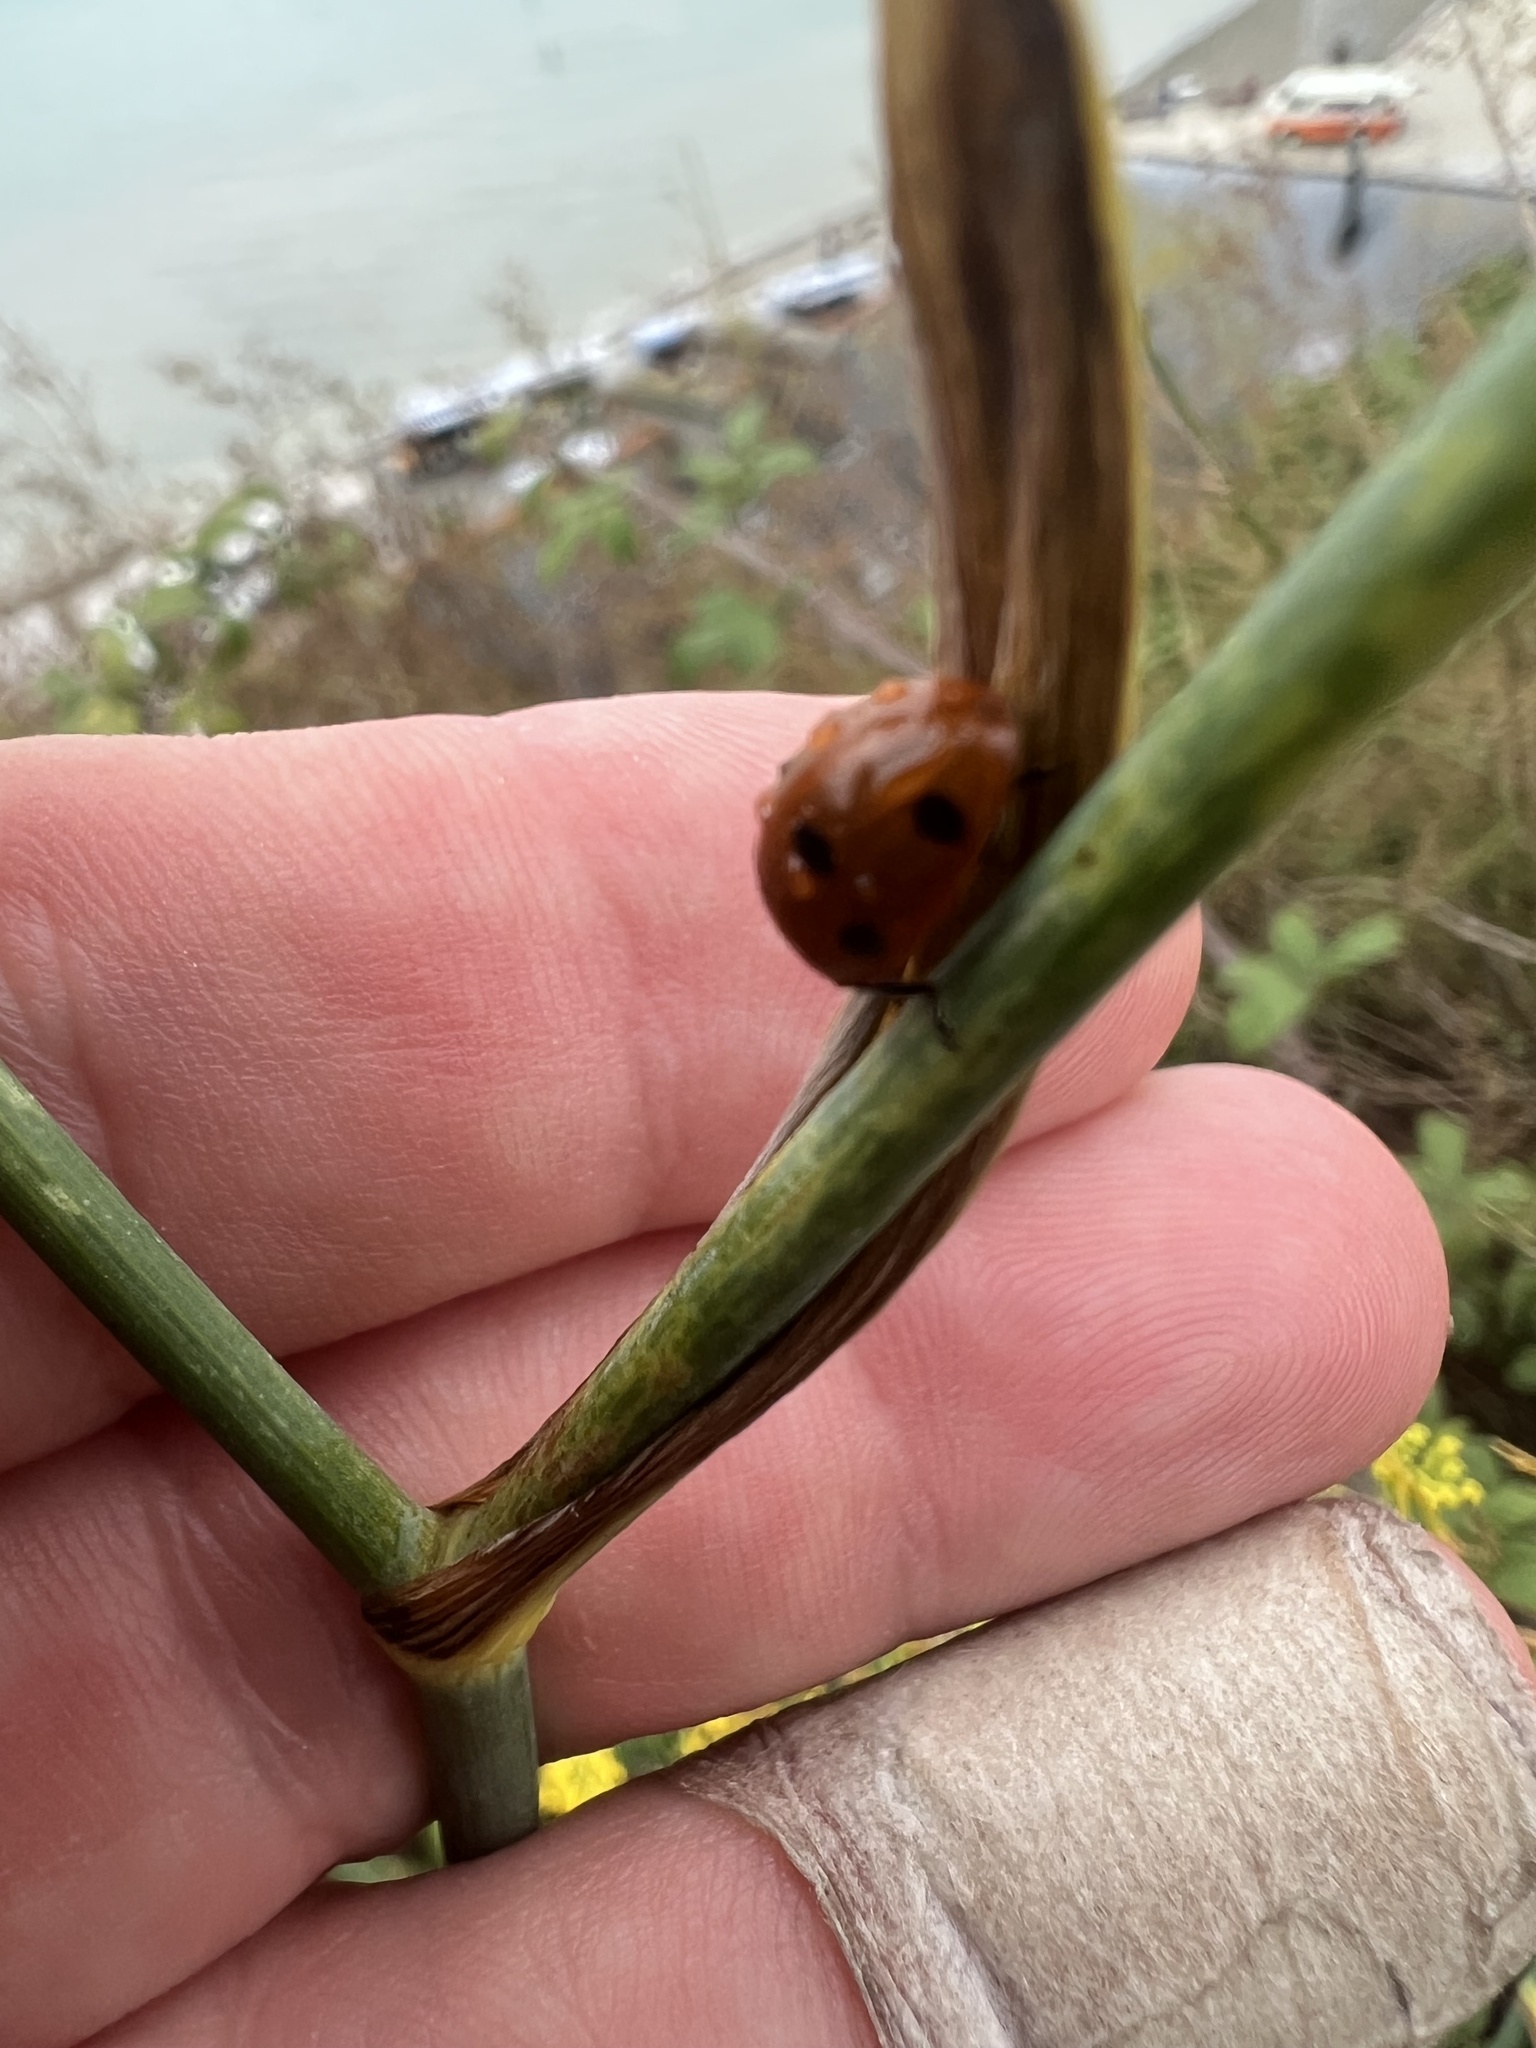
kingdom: Animalia
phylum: Arthropoda
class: Insecta
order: Coleoptera
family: Coccinellidae
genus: Coccinella
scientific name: Coccinella septempunctata
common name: Sevenspotted lady beetle
